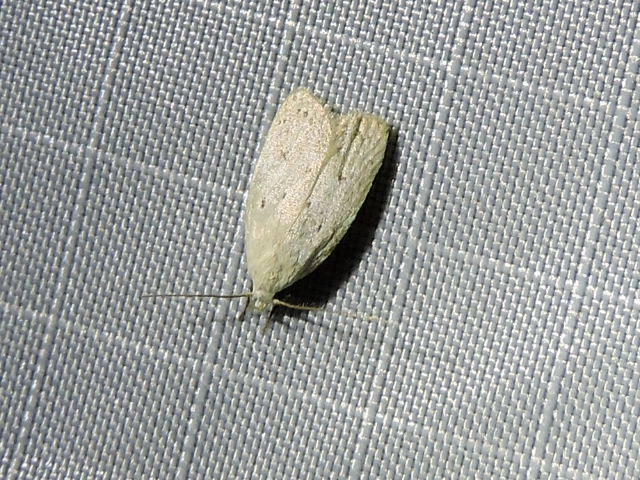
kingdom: Animalia
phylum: Arthropoda
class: Insecta
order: Lepidoptera
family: Oecophoridae
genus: Inga
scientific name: Inga cretacea
